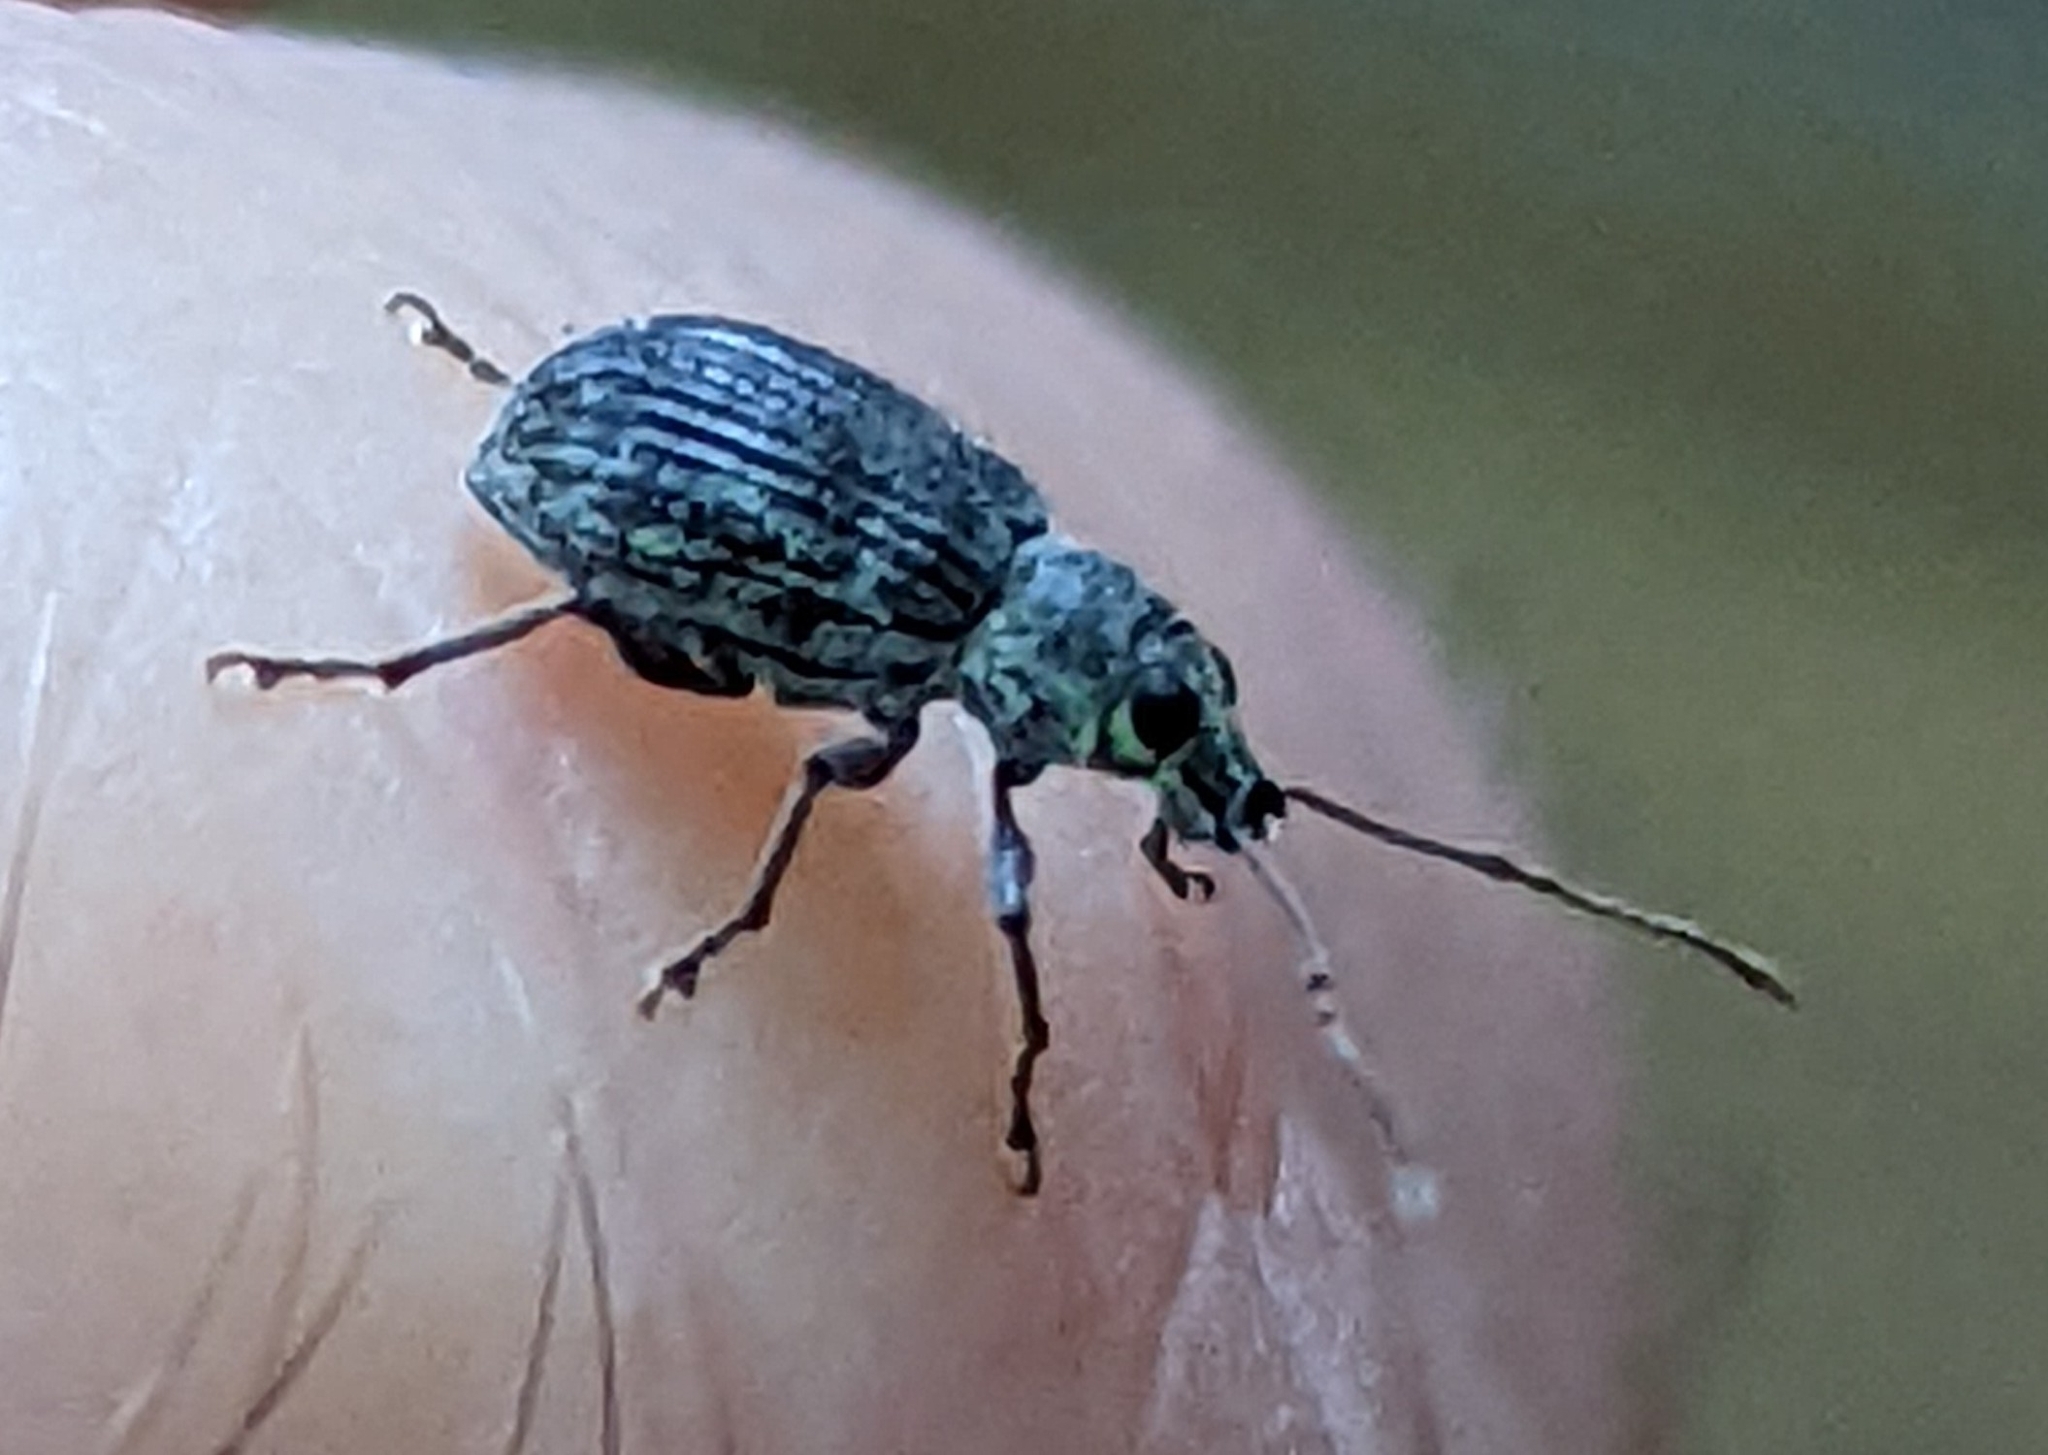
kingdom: Animalia
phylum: Arthropoda
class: Insecta
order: Coleoptera
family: Curculionidae
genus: Cyrtepistomus
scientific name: Cyrtepistomus castaneus
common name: Weevil
